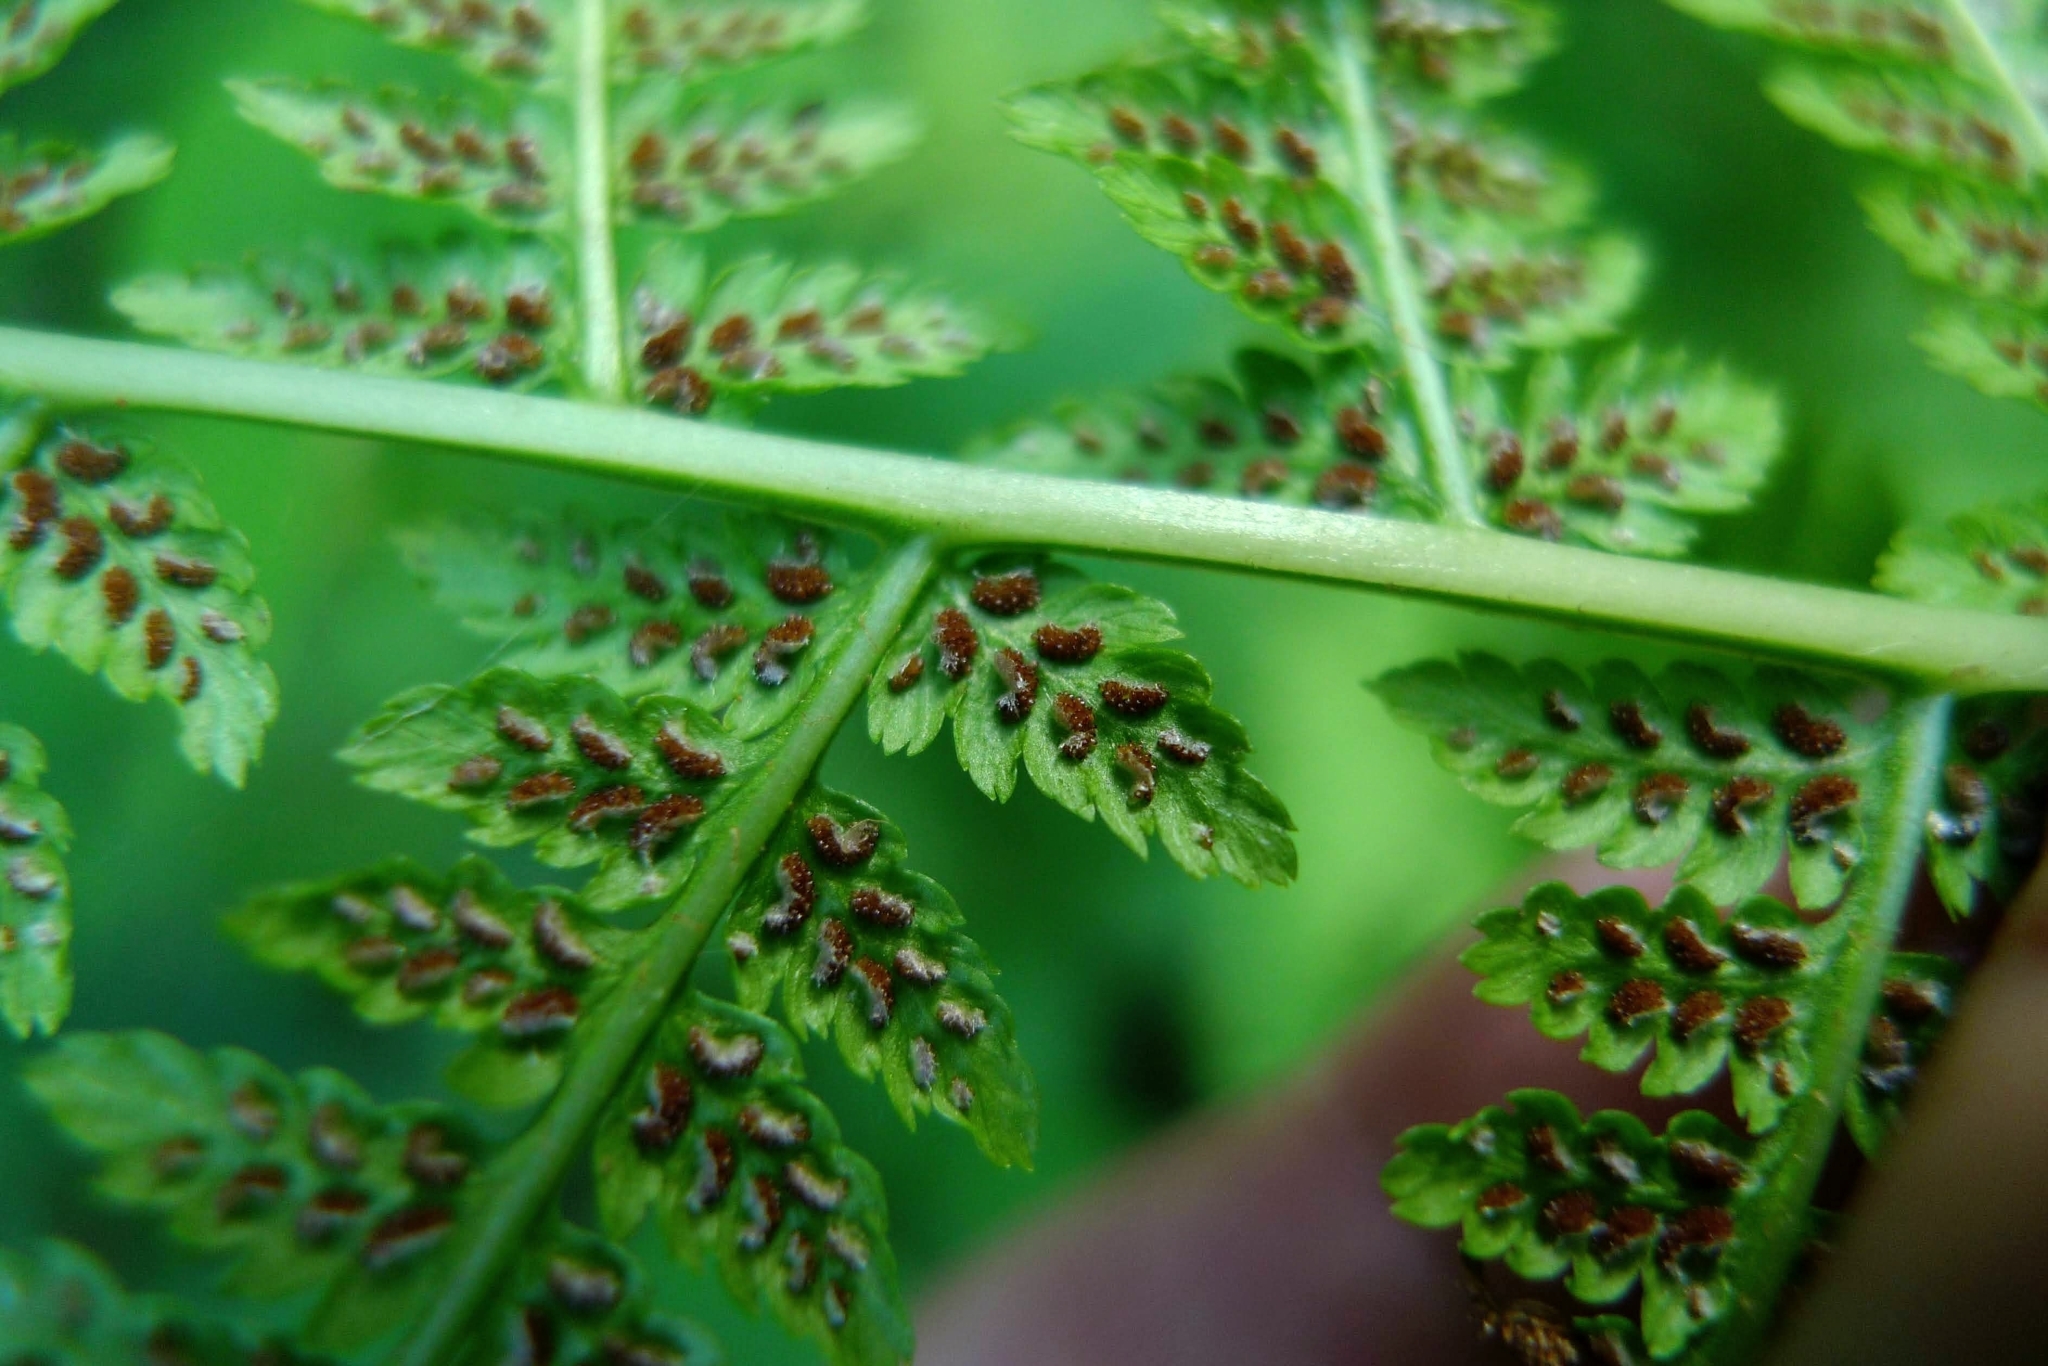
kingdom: Plantae
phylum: Tracheophyta
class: Polypodiopsida
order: Polypodiales
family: Athyriaceae
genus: Athyrium
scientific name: Athyrium filix-femina
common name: Lady fern
